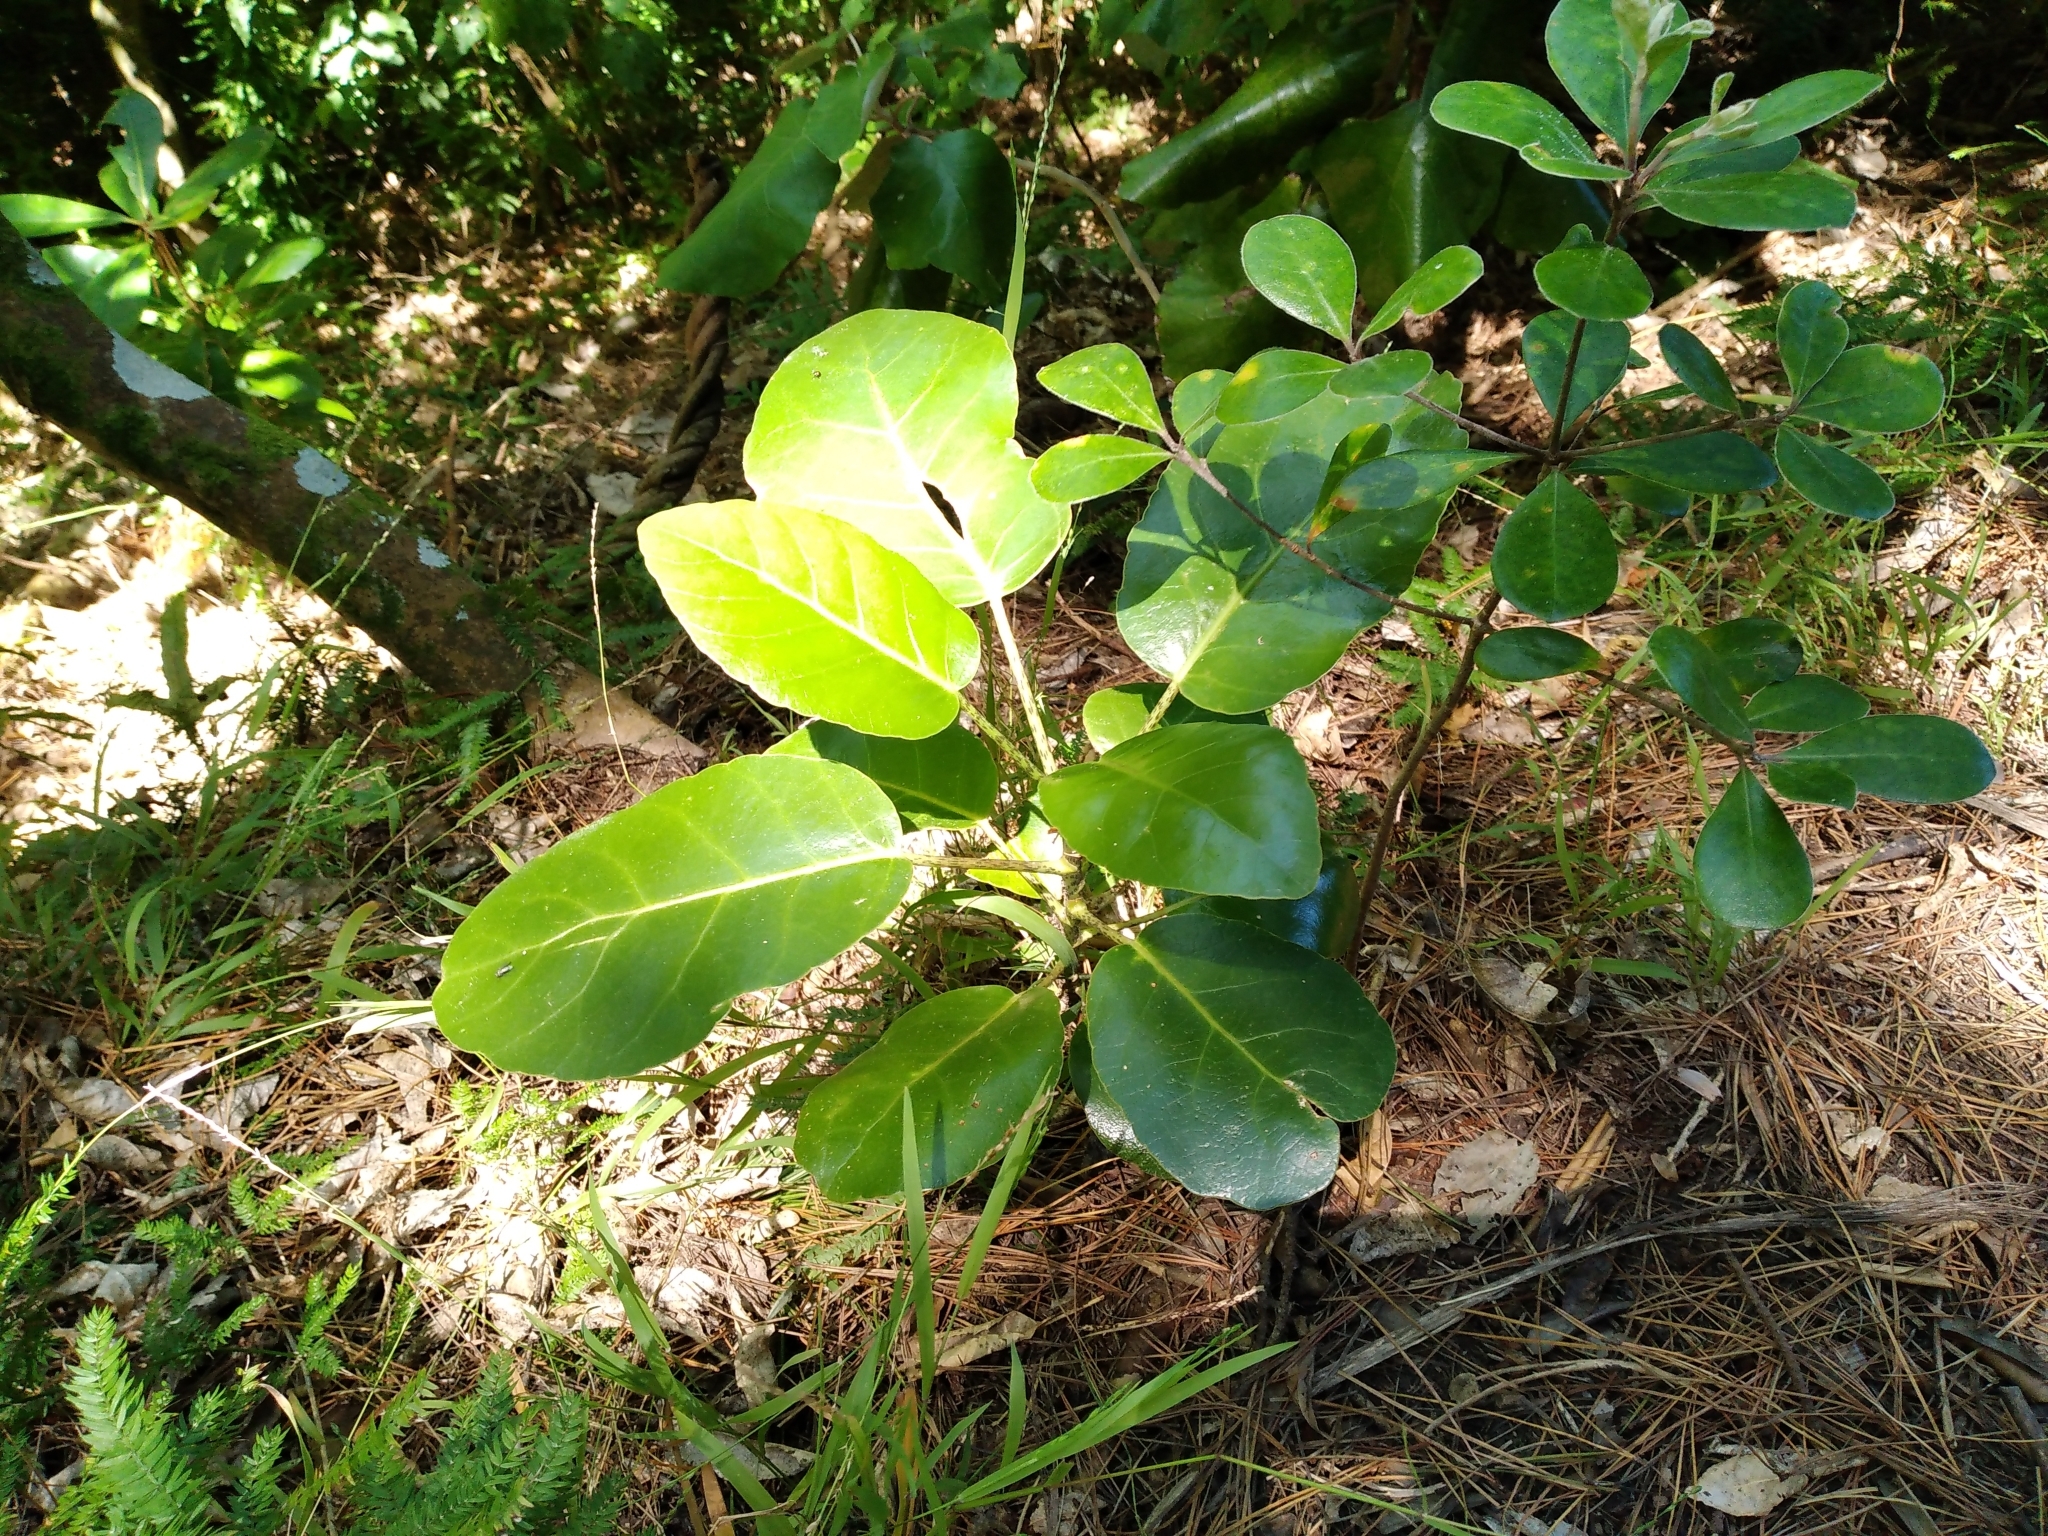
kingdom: Plantae
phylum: Tracheophyta
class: Magnoliopsida
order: Apiales
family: Araliaceae
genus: Meryta
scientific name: Meryta sinclairii
